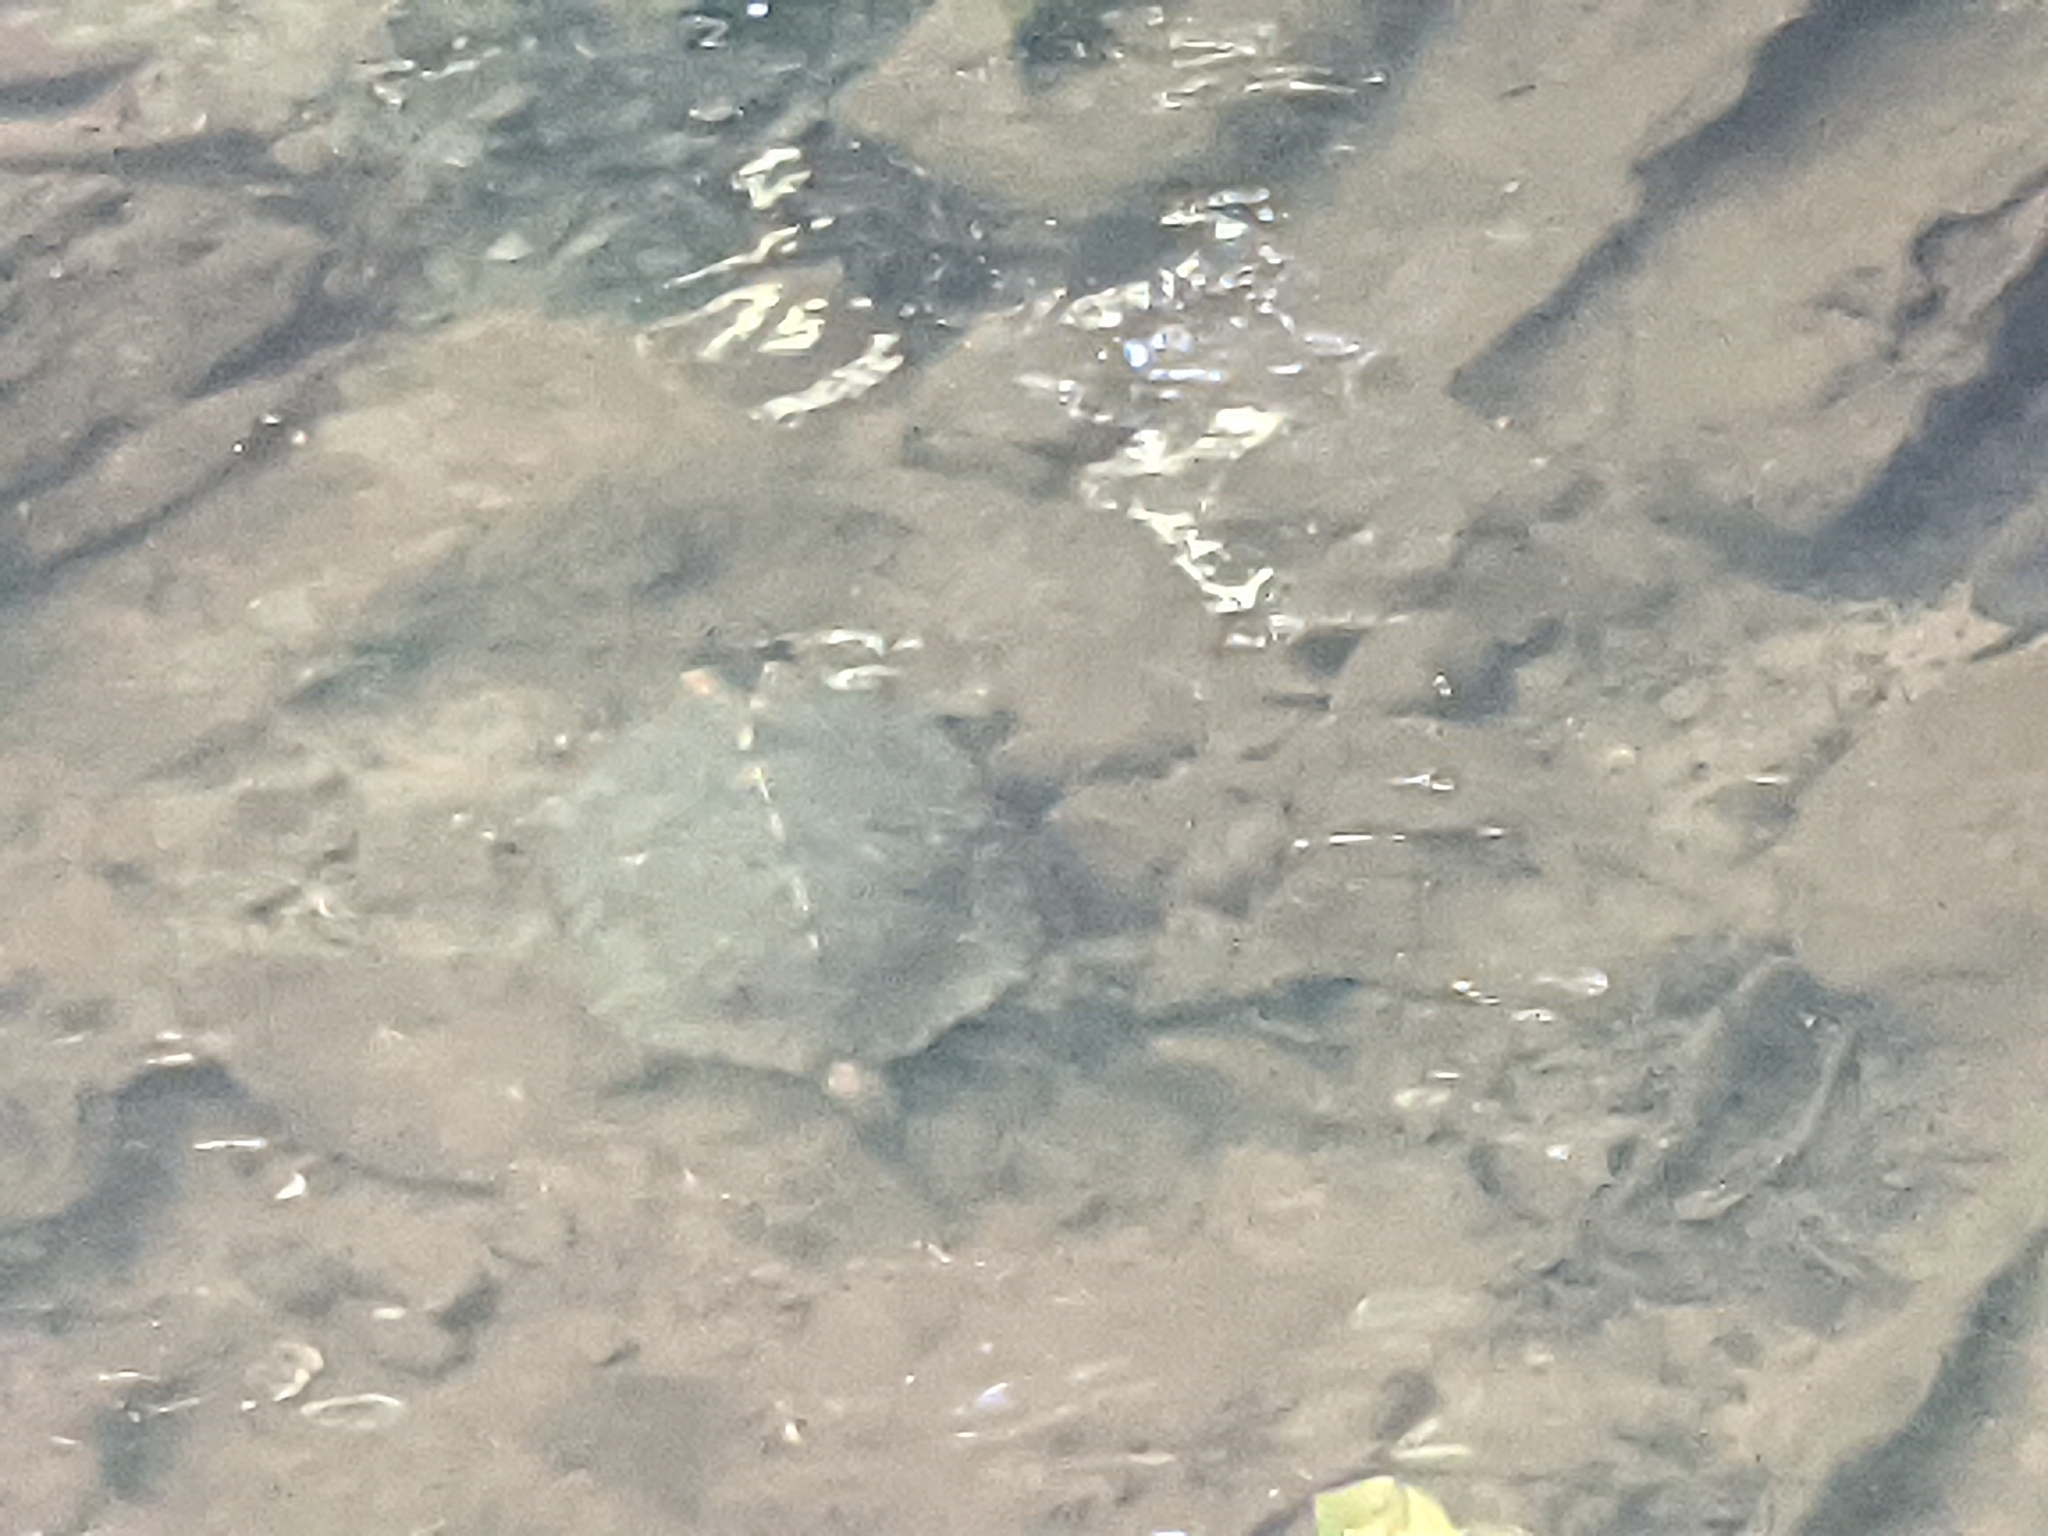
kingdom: Animalia
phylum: Chordata
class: Testudines
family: Emydidae
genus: Glyptemys
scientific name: Glyptemys insculpta
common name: Wood turtle
